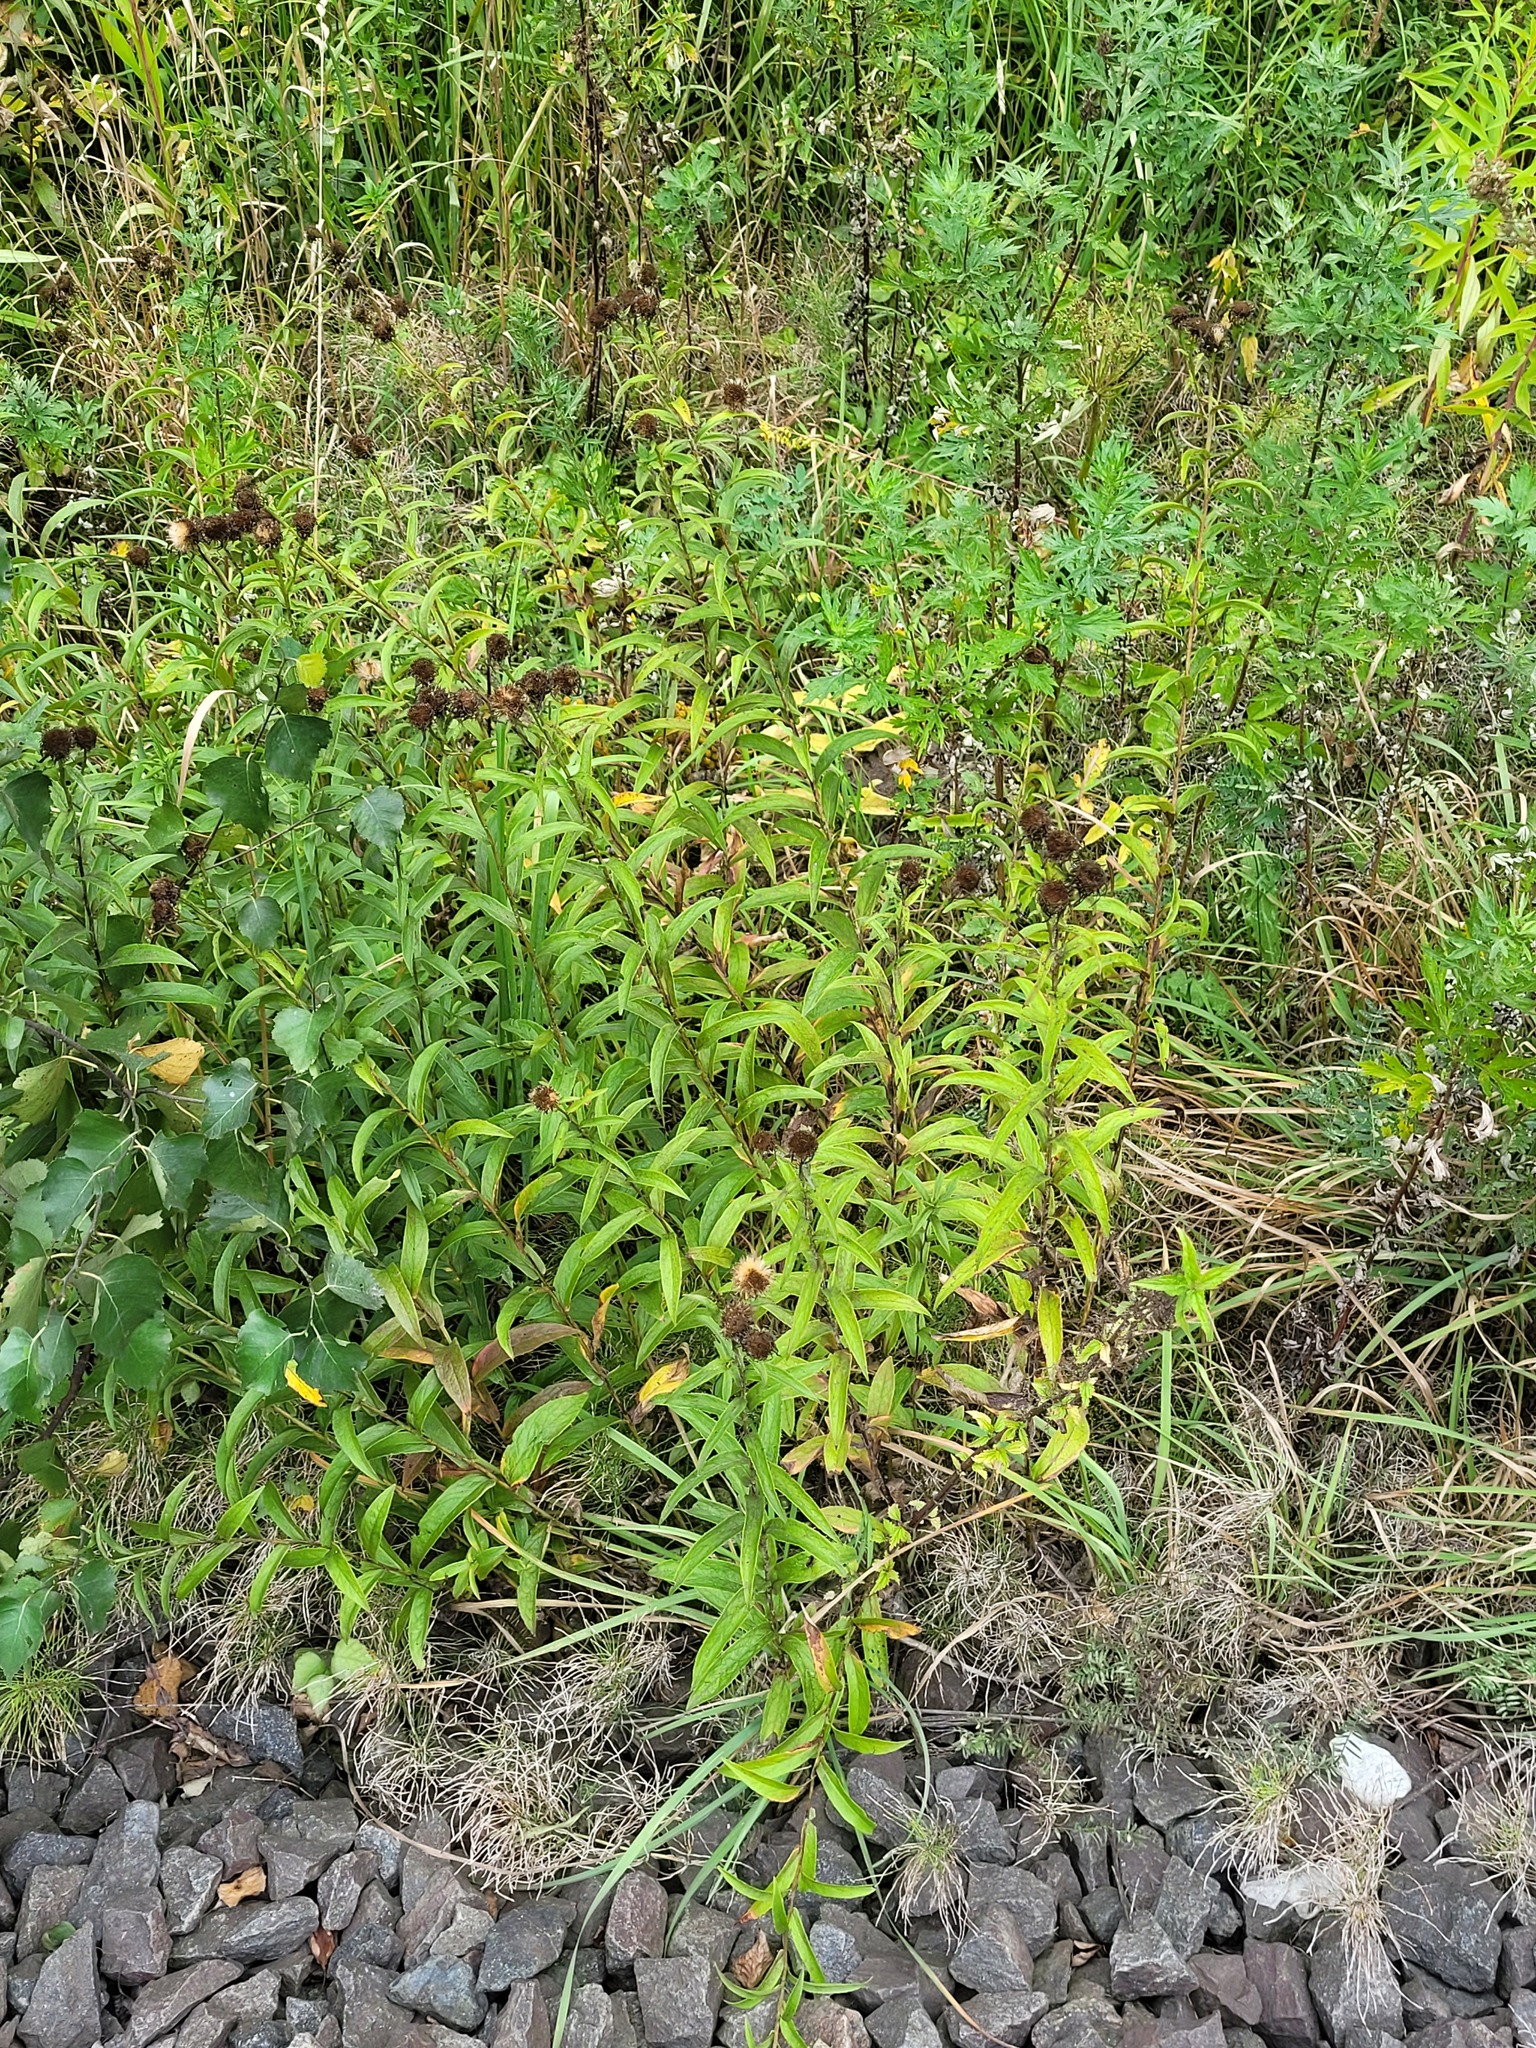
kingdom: Plantae
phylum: Tracheophyta
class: Magnoliopsida
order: Asterales
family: Asteraceae
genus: Pentanema
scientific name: Pentanema salicinum
